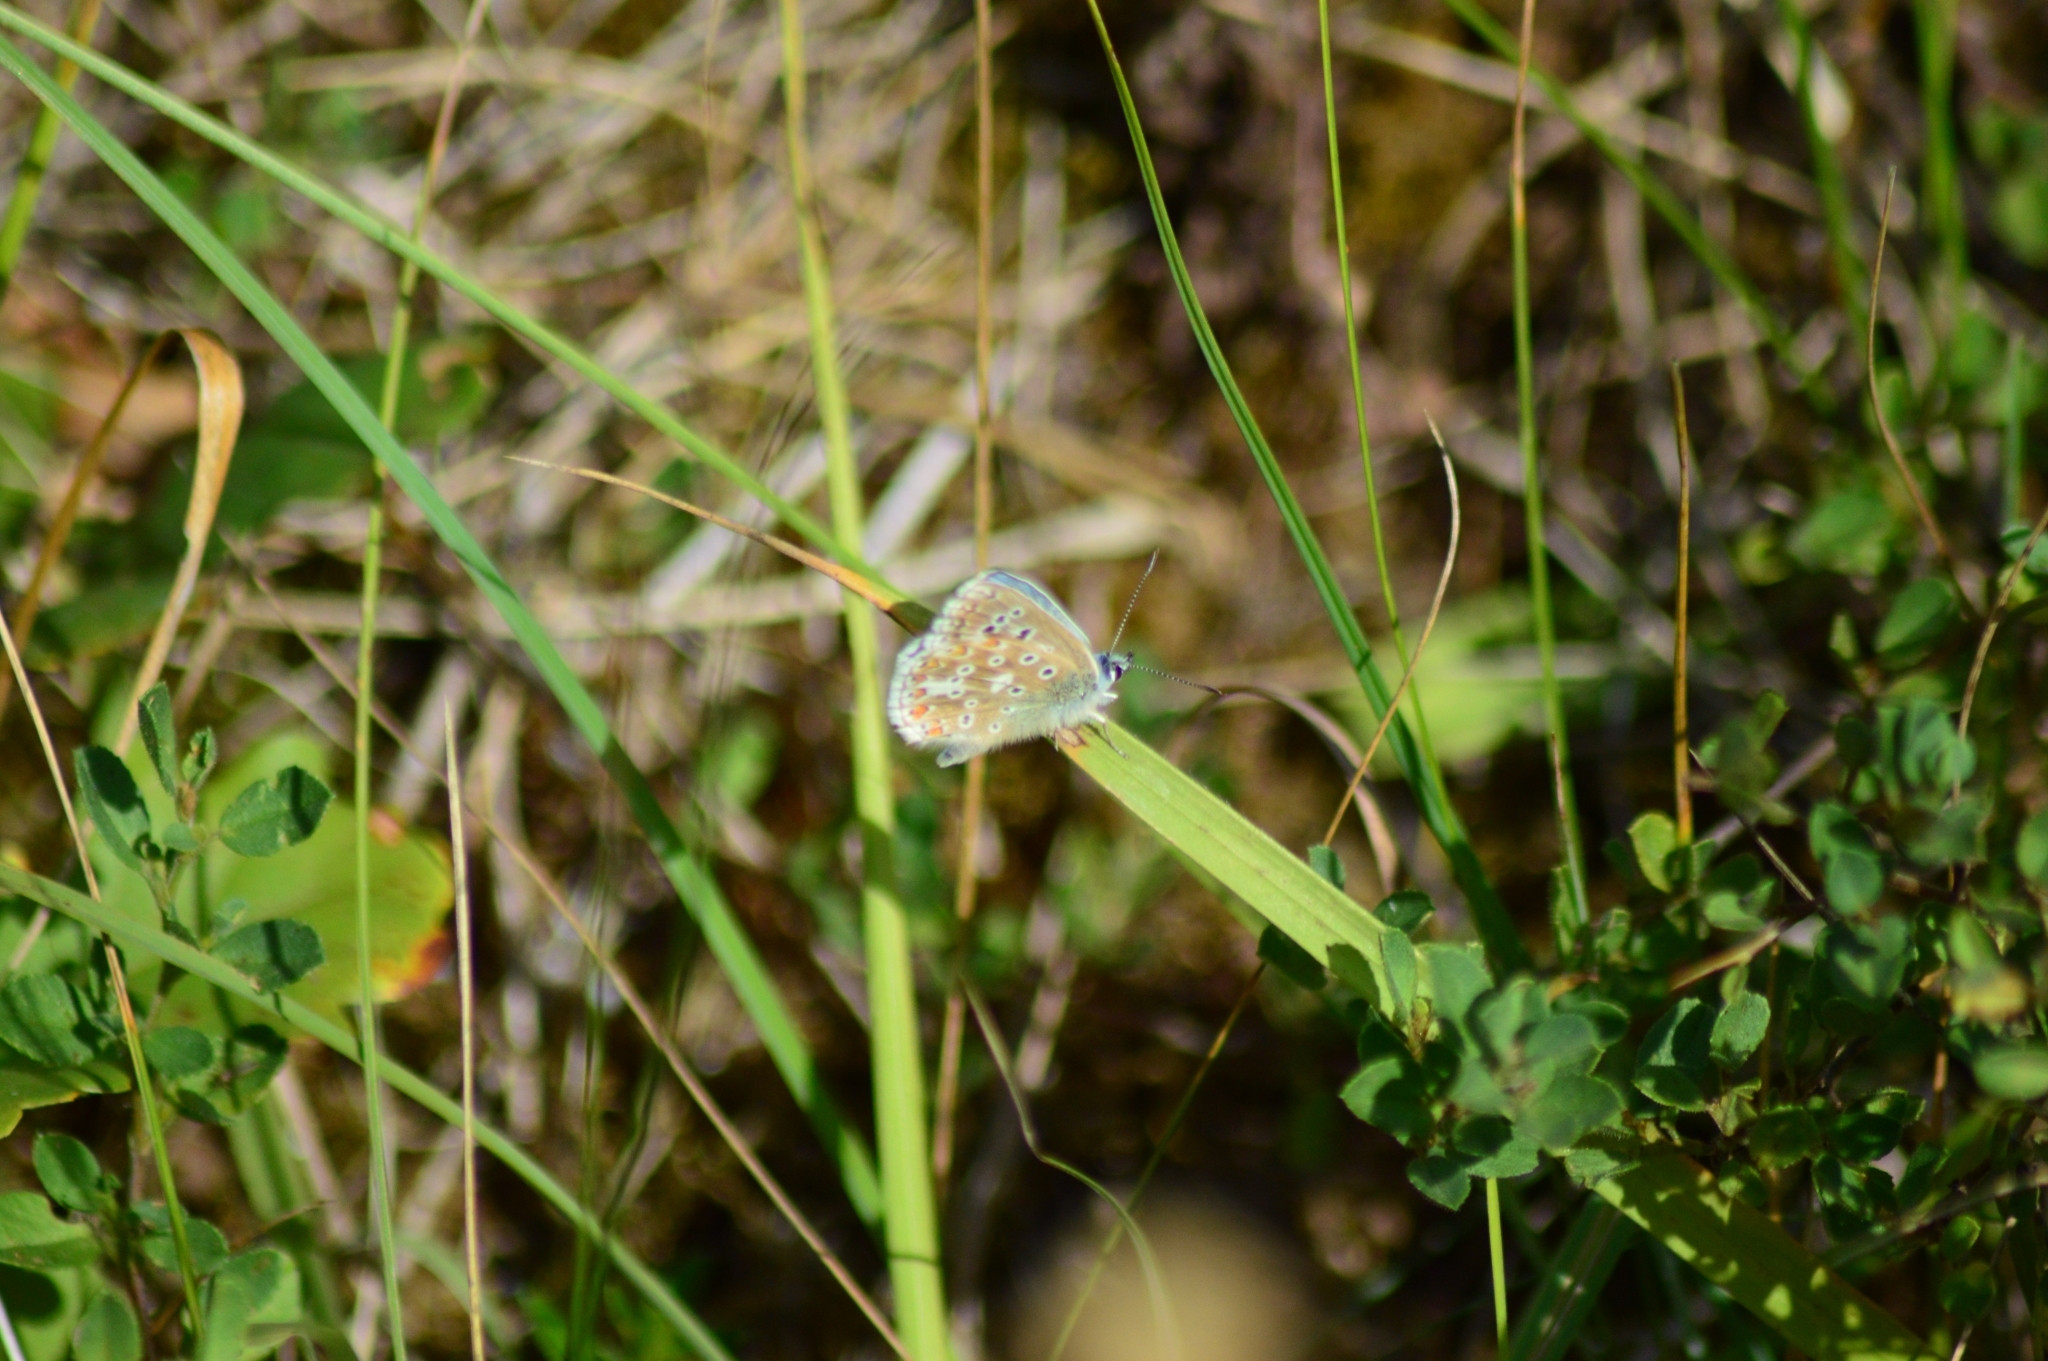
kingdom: Animalia
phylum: Arthropoda
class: Insecta
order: Lepidoptera
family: Lycaenidae
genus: Lysandra
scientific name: Lysandra bellargus
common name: Adonis blue
